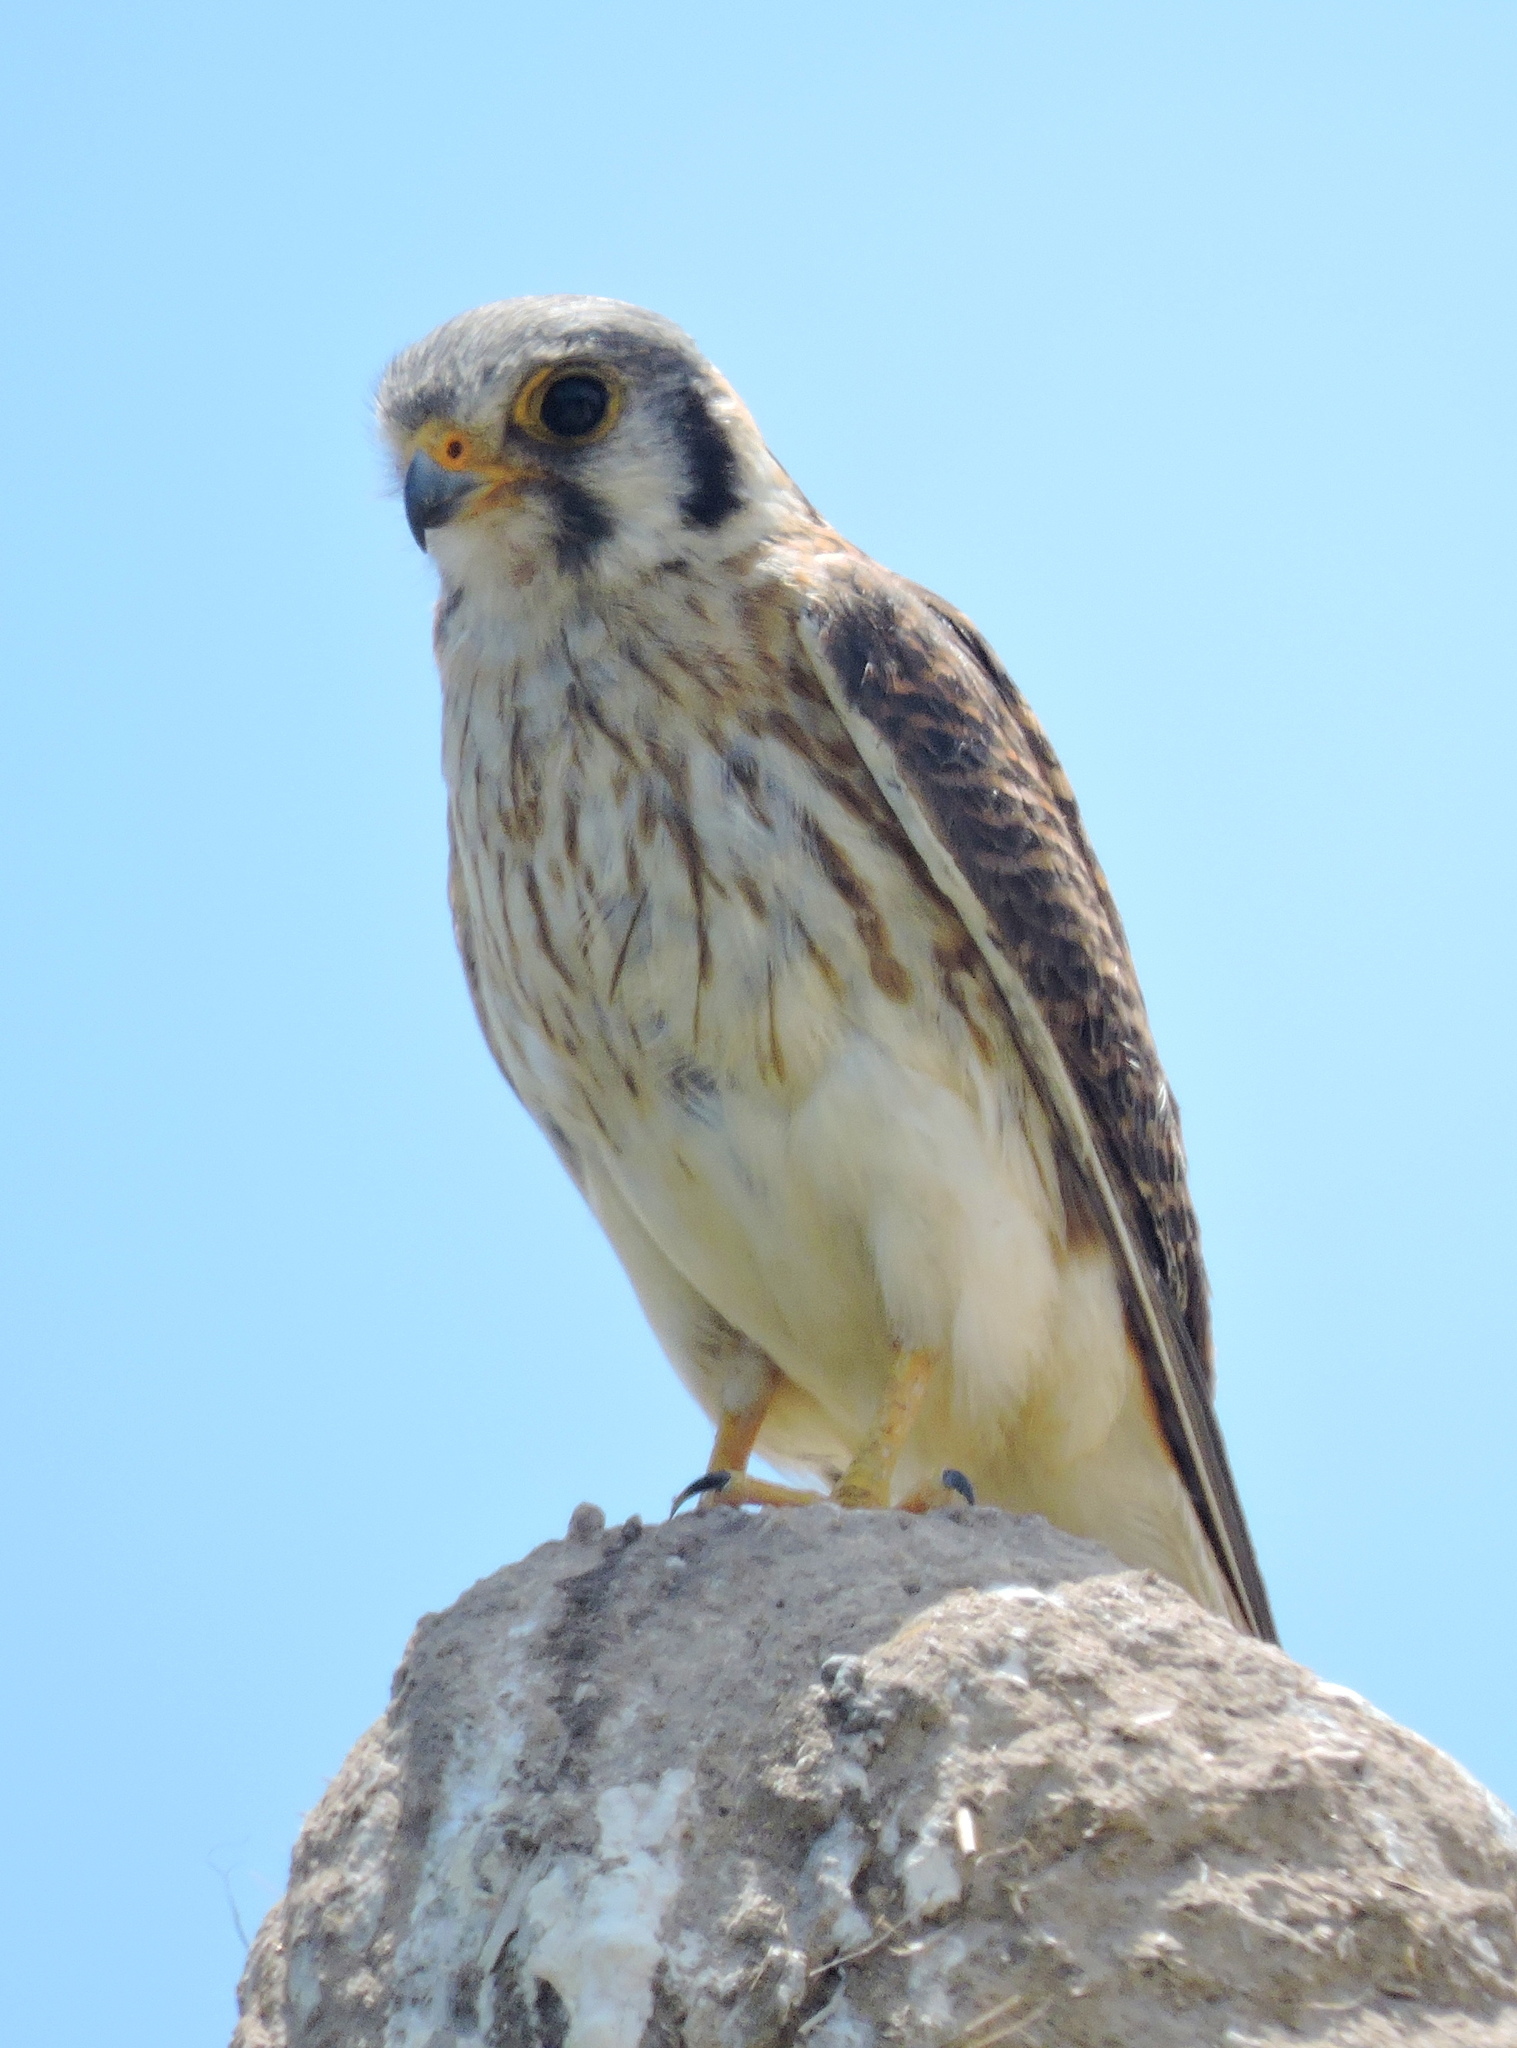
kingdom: Animalia
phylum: Chordata
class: Aves
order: Falconiformes
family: Falconidae
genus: Falco
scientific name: Falco sparverius
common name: American kestrel
